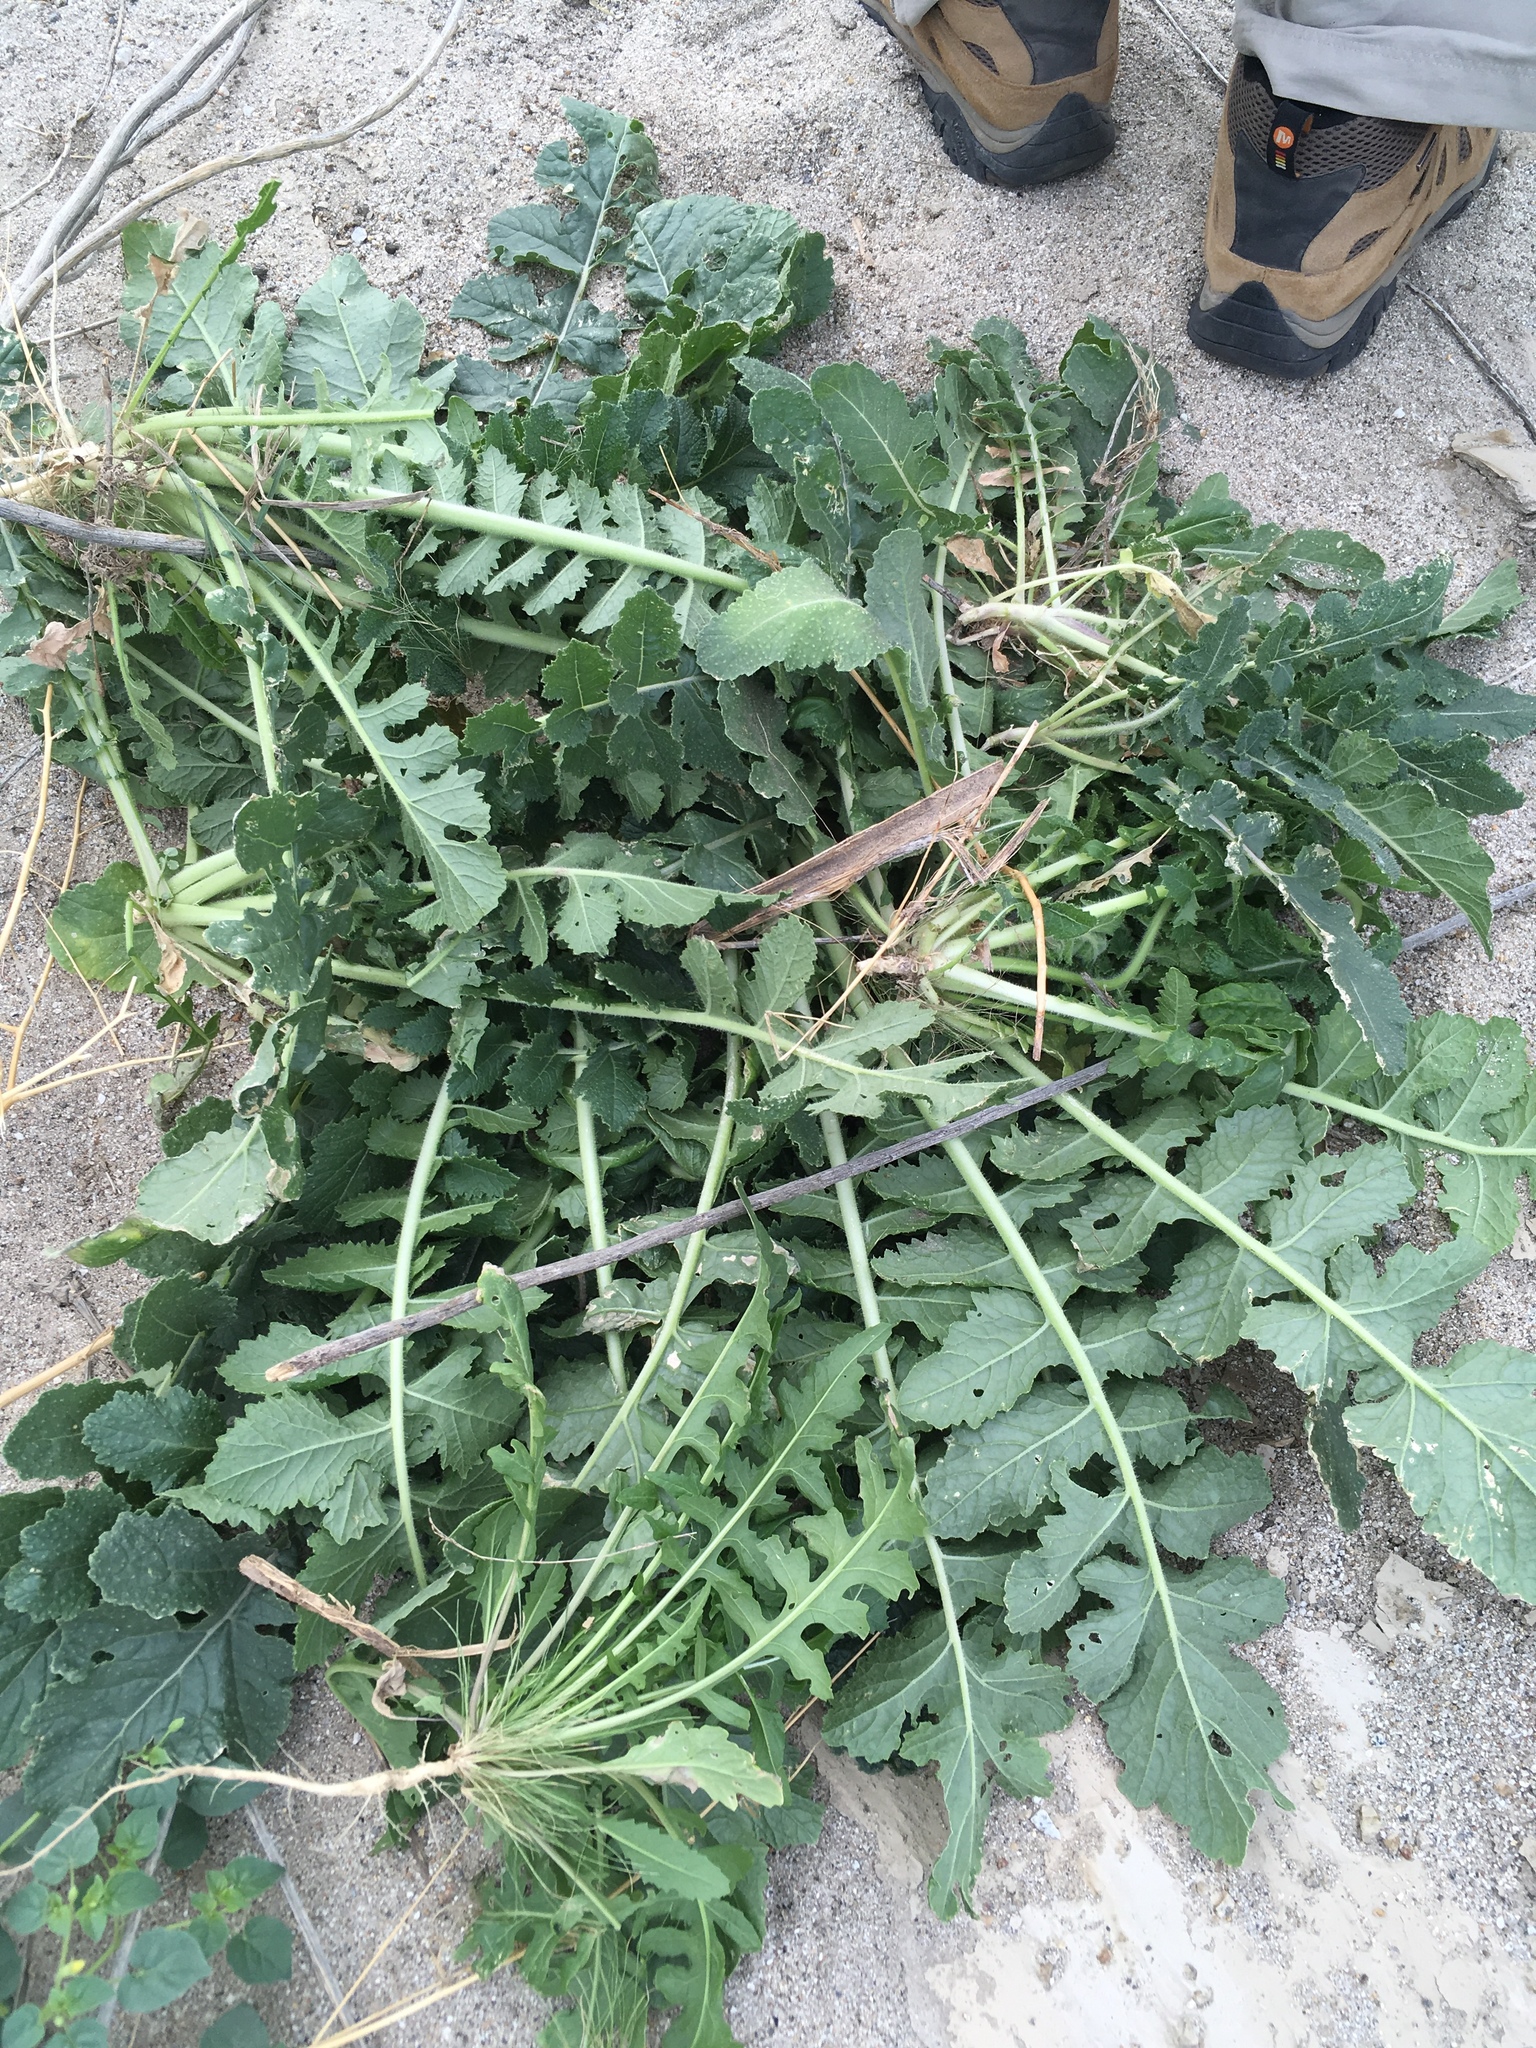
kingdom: Plantae
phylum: Tracheophyta
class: Magnoliopsida
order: Brassicales
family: Brassicaceae
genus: Brassica
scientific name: Brassica tournefortii
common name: Pale cabbage
